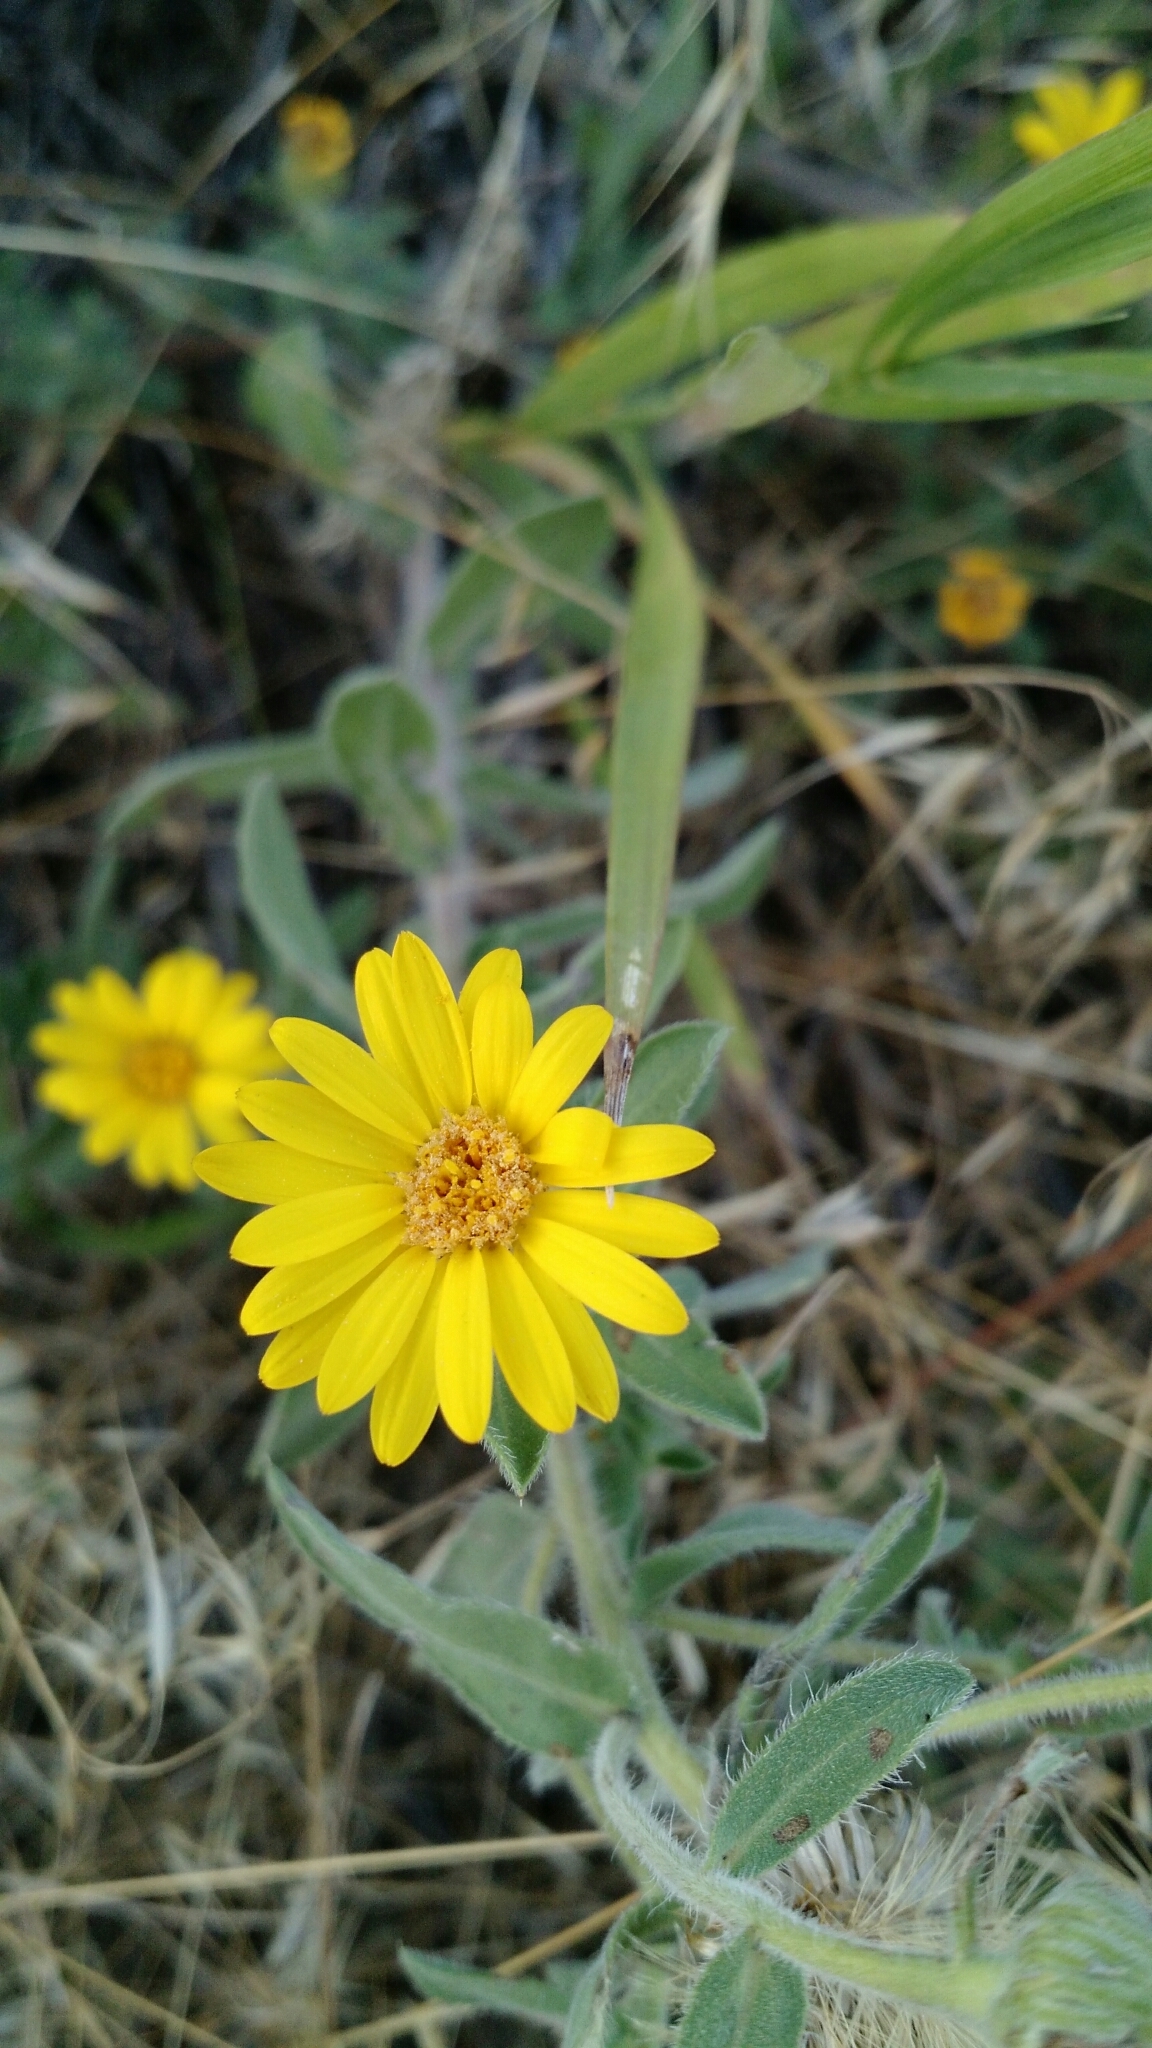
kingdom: Plantae
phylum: Tracheophyta
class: Magnoliopsida
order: Asterales
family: Asteraceae
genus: Heterotheca
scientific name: Heterotheca villosa
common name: Hairy false goldenaster
